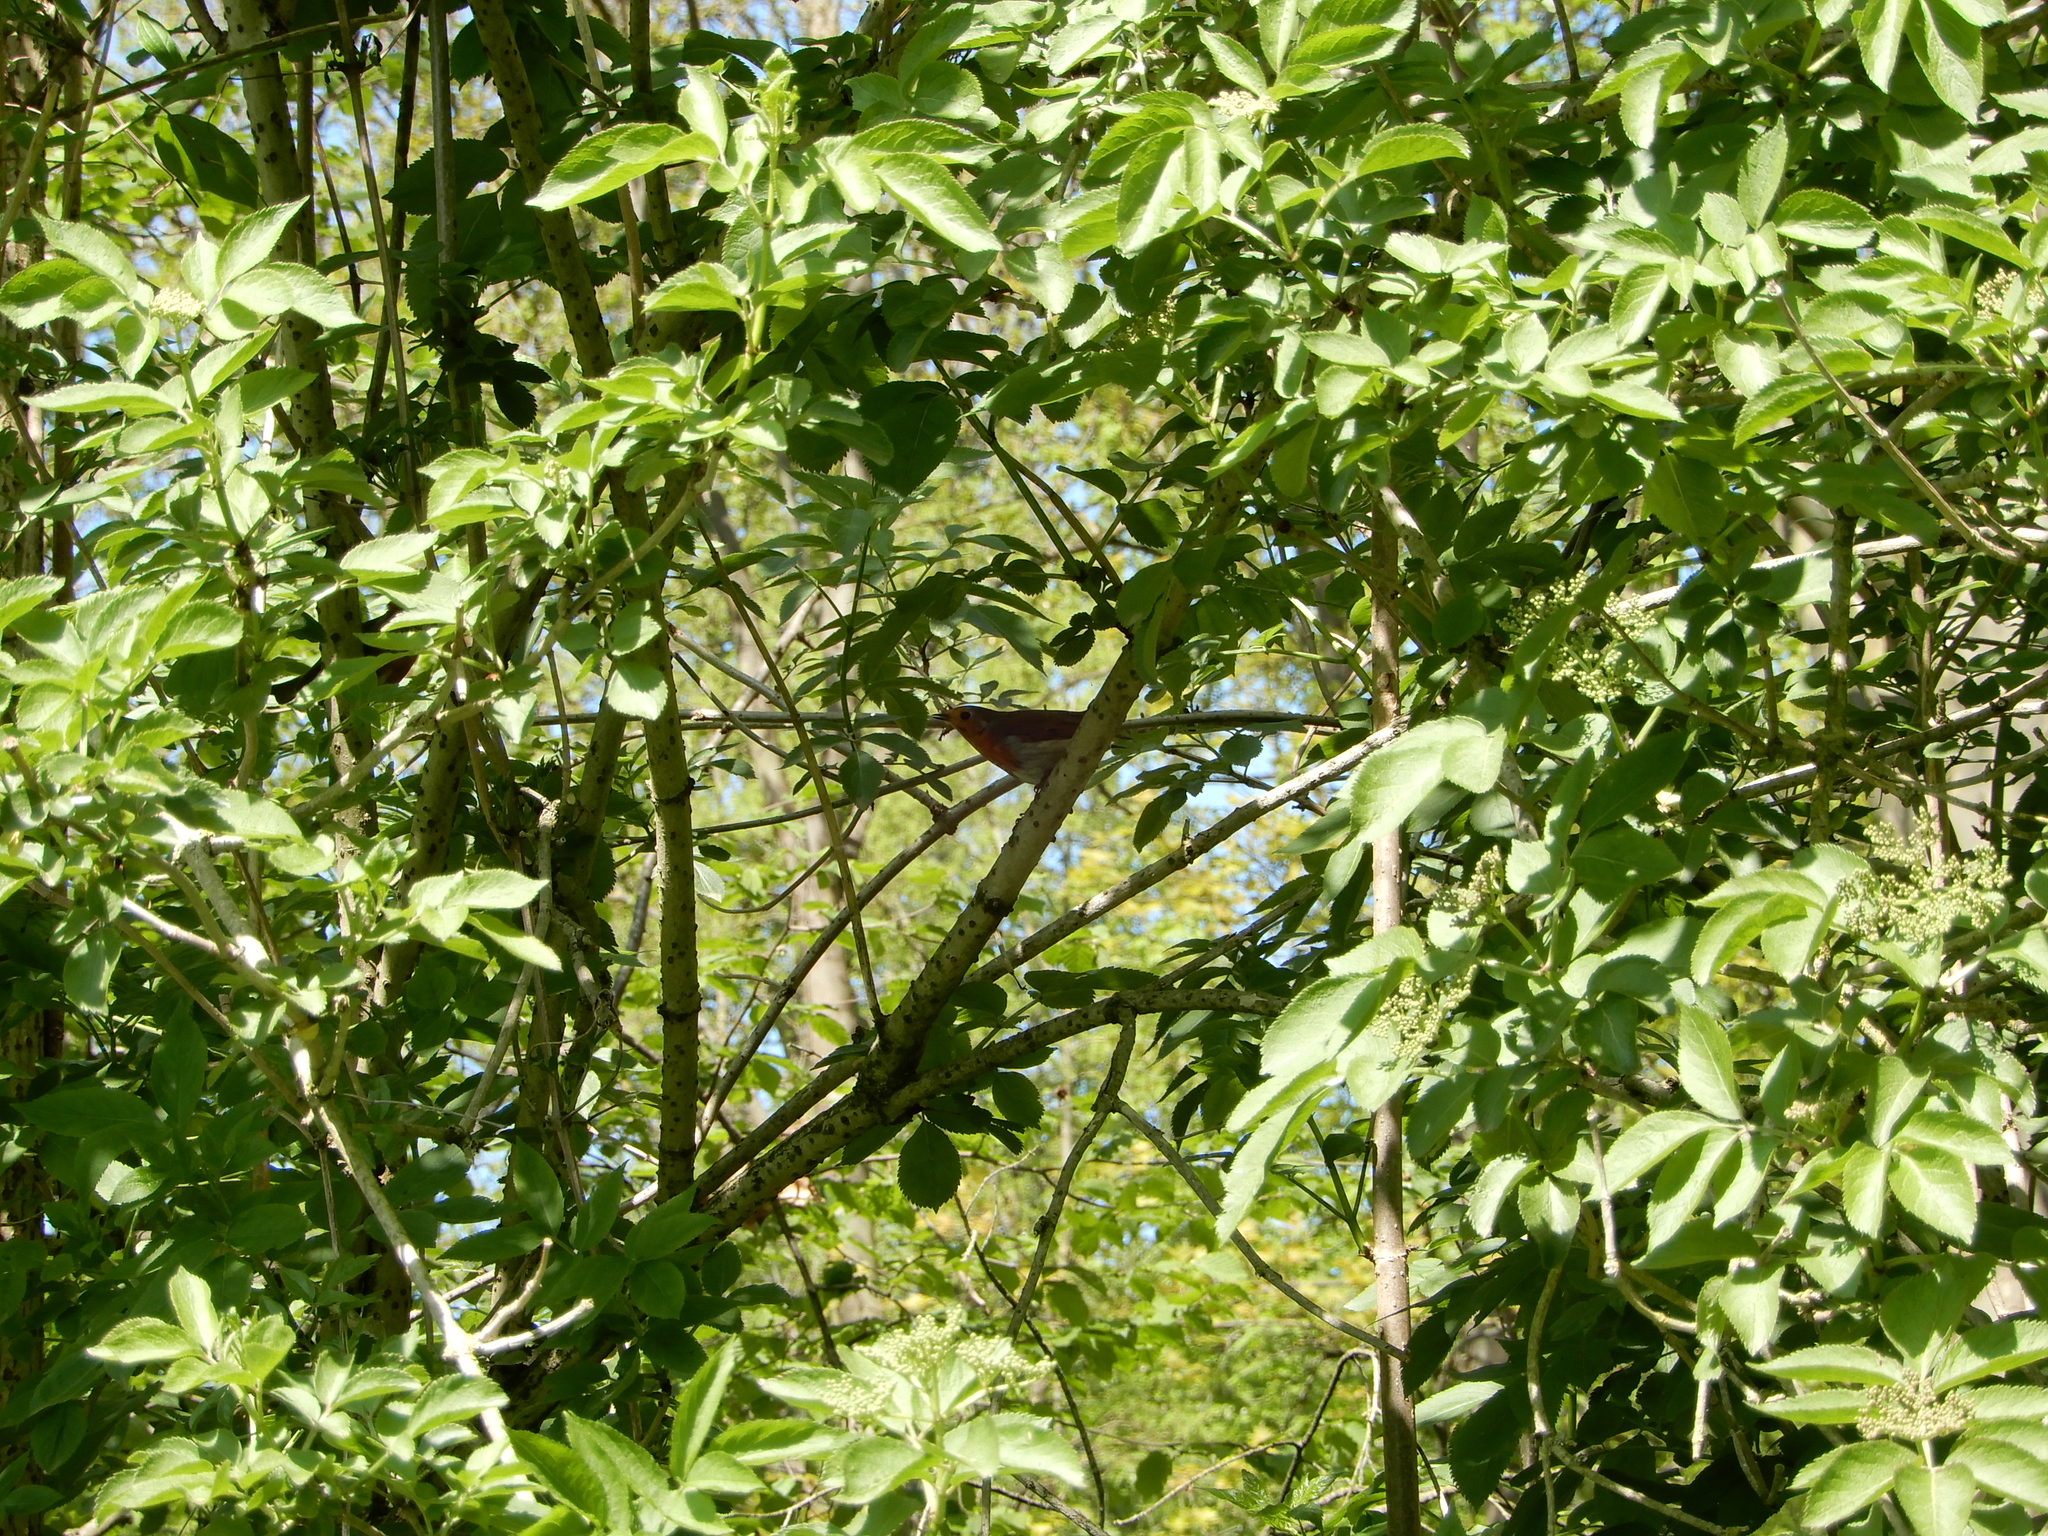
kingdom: Animalia
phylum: Chordata
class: Aves
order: Passeriformes
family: Muscicapidae
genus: Erithacus
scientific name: Erithacus rubecula
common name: European robin
